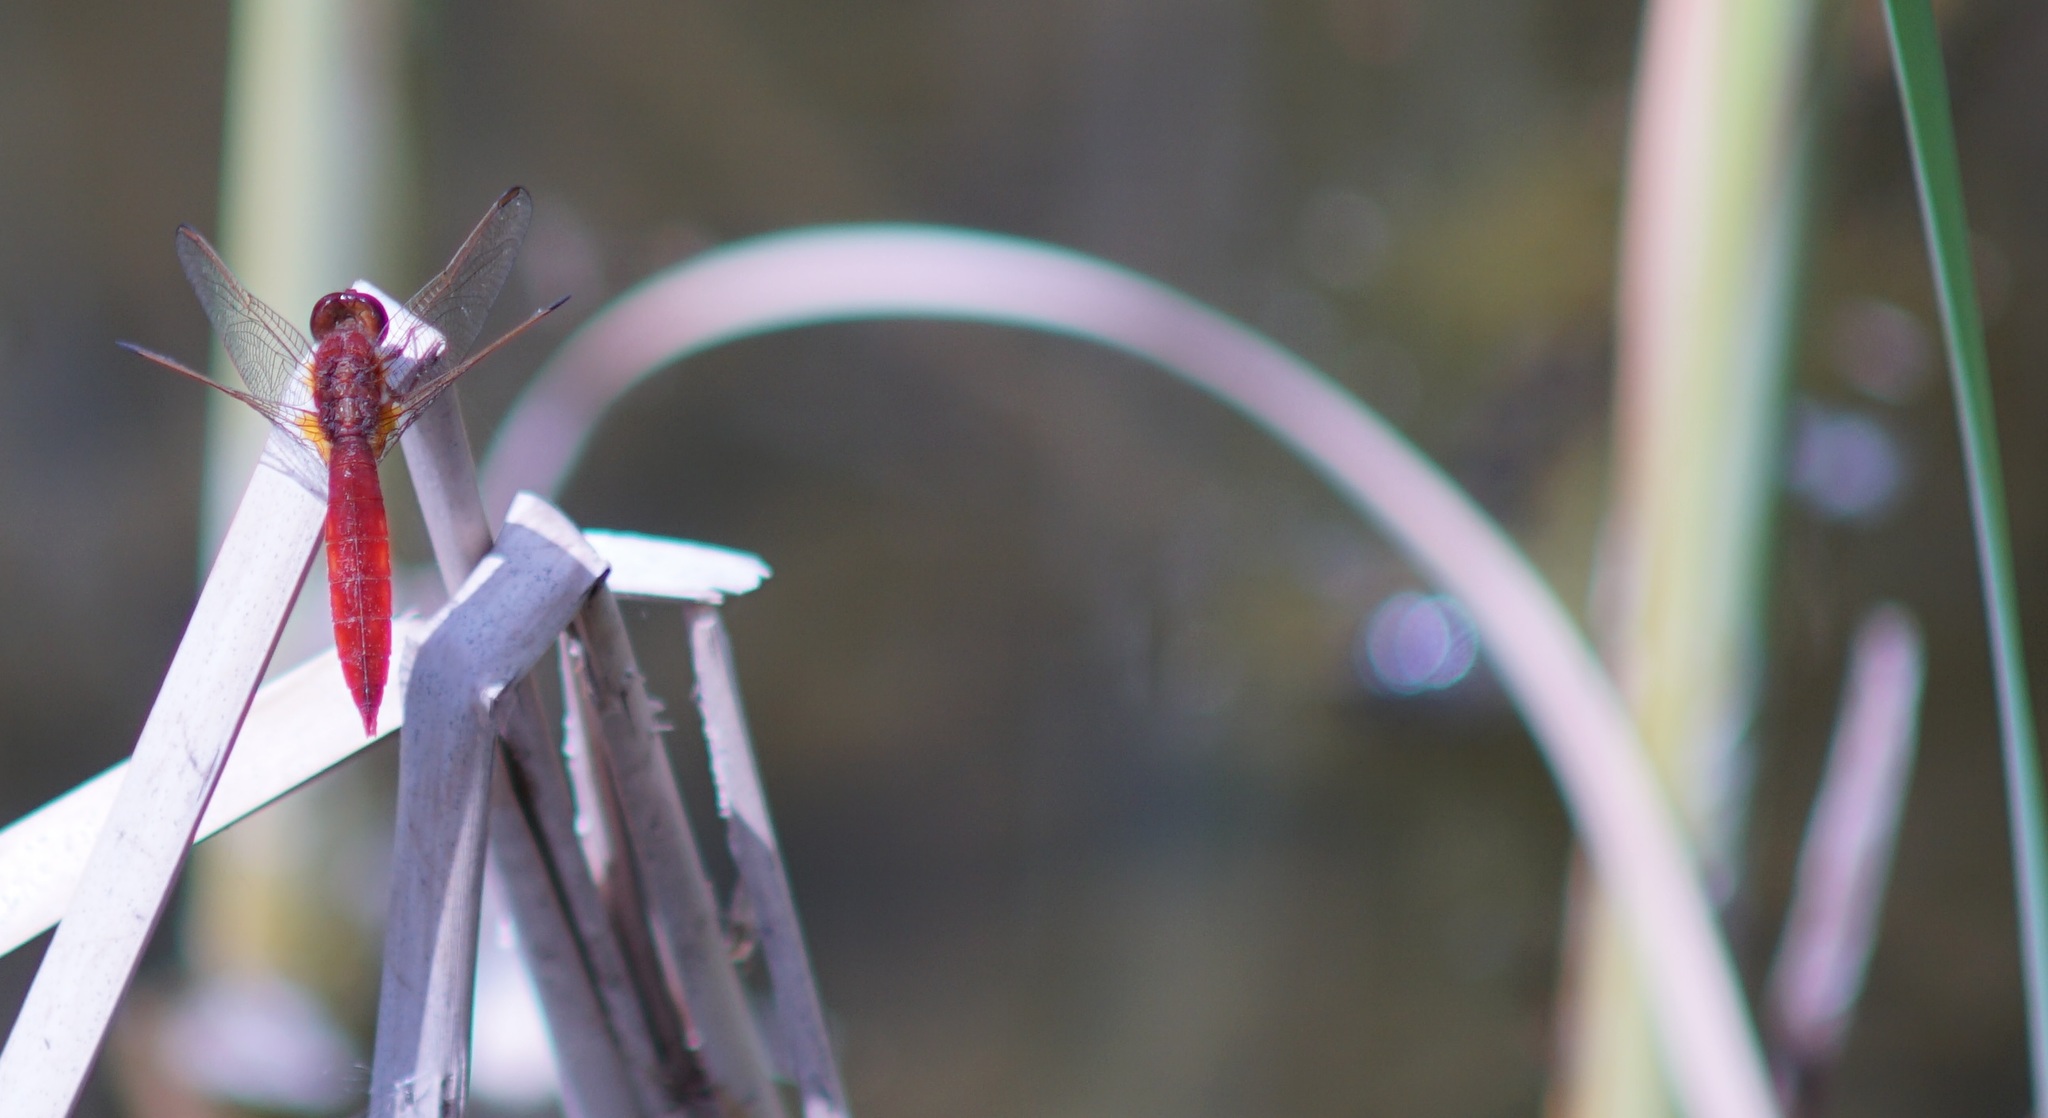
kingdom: Animalia
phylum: Arthropoda
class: Insecta
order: Odonata
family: Libellulidae
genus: Crocothemis
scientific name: Crocothemis erythraea
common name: Scarlet dragonfly
